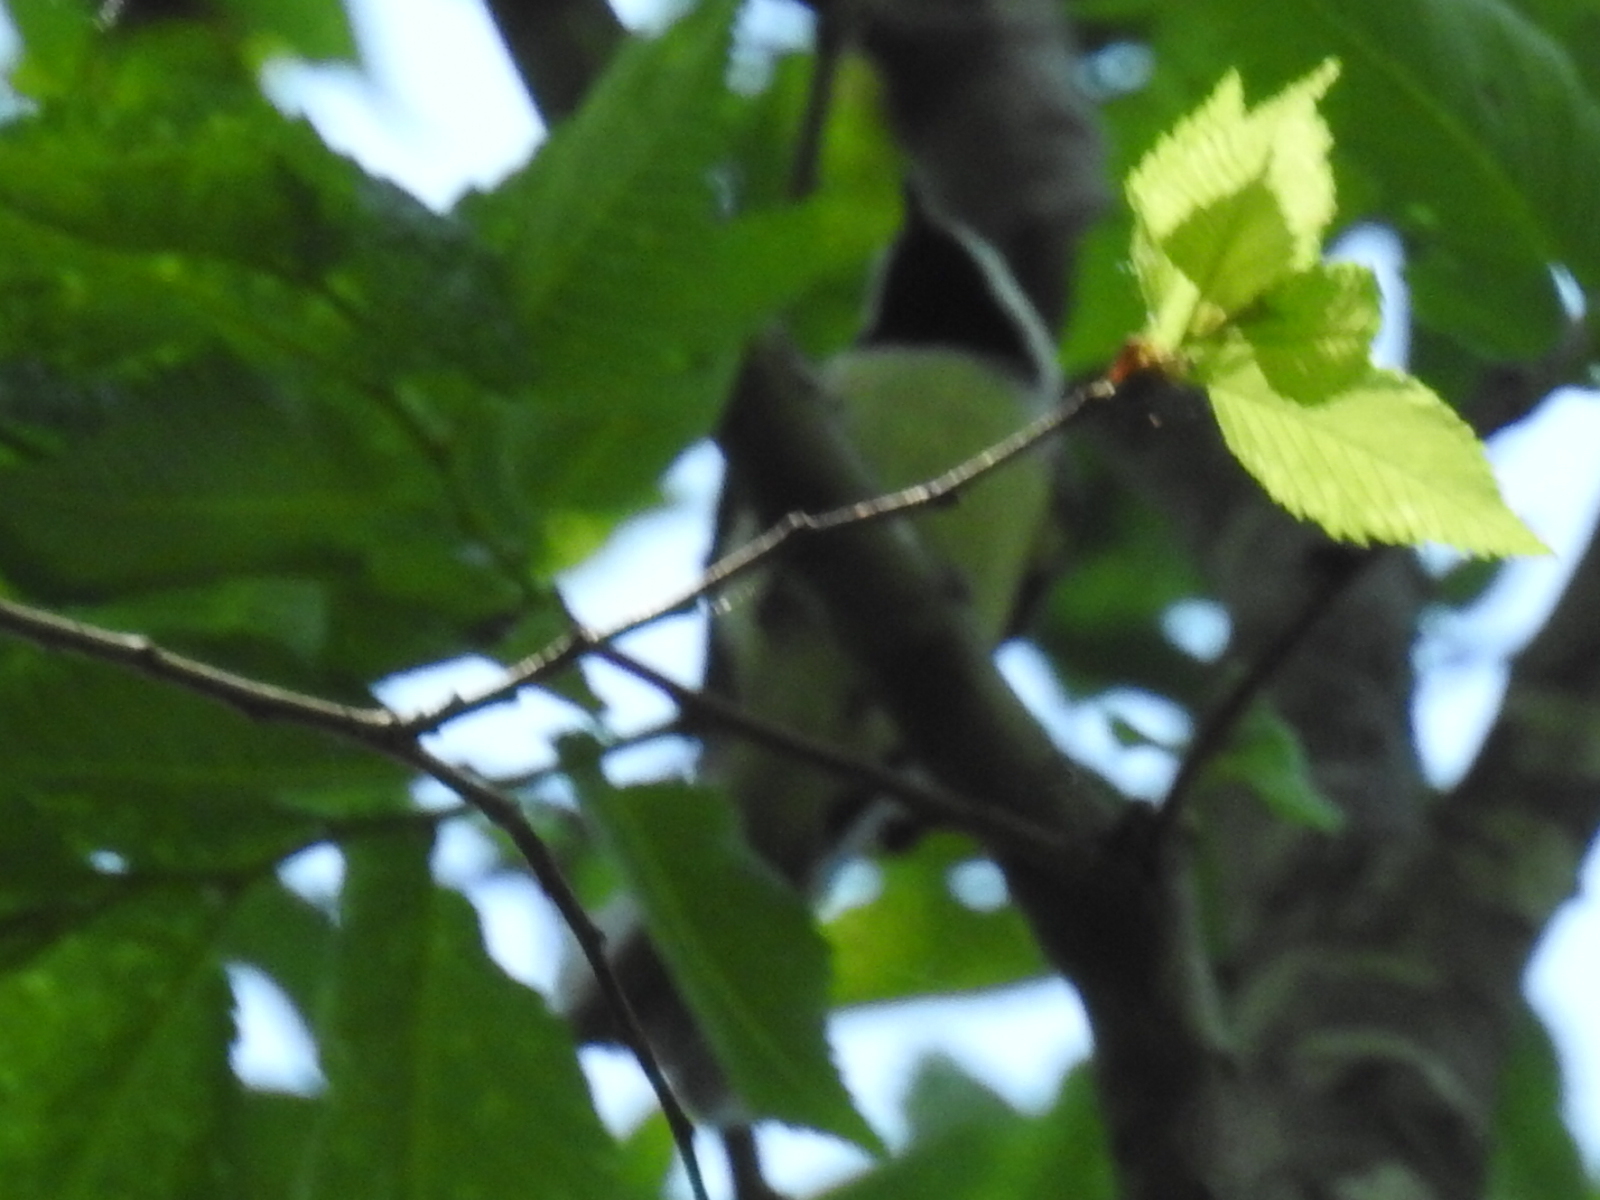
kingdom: Animalia
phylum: Chordata
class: Aves
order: Passeriformes
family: Paridae
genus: Poecile
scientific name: Poecile carolinensis
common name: Carolina chickadee
